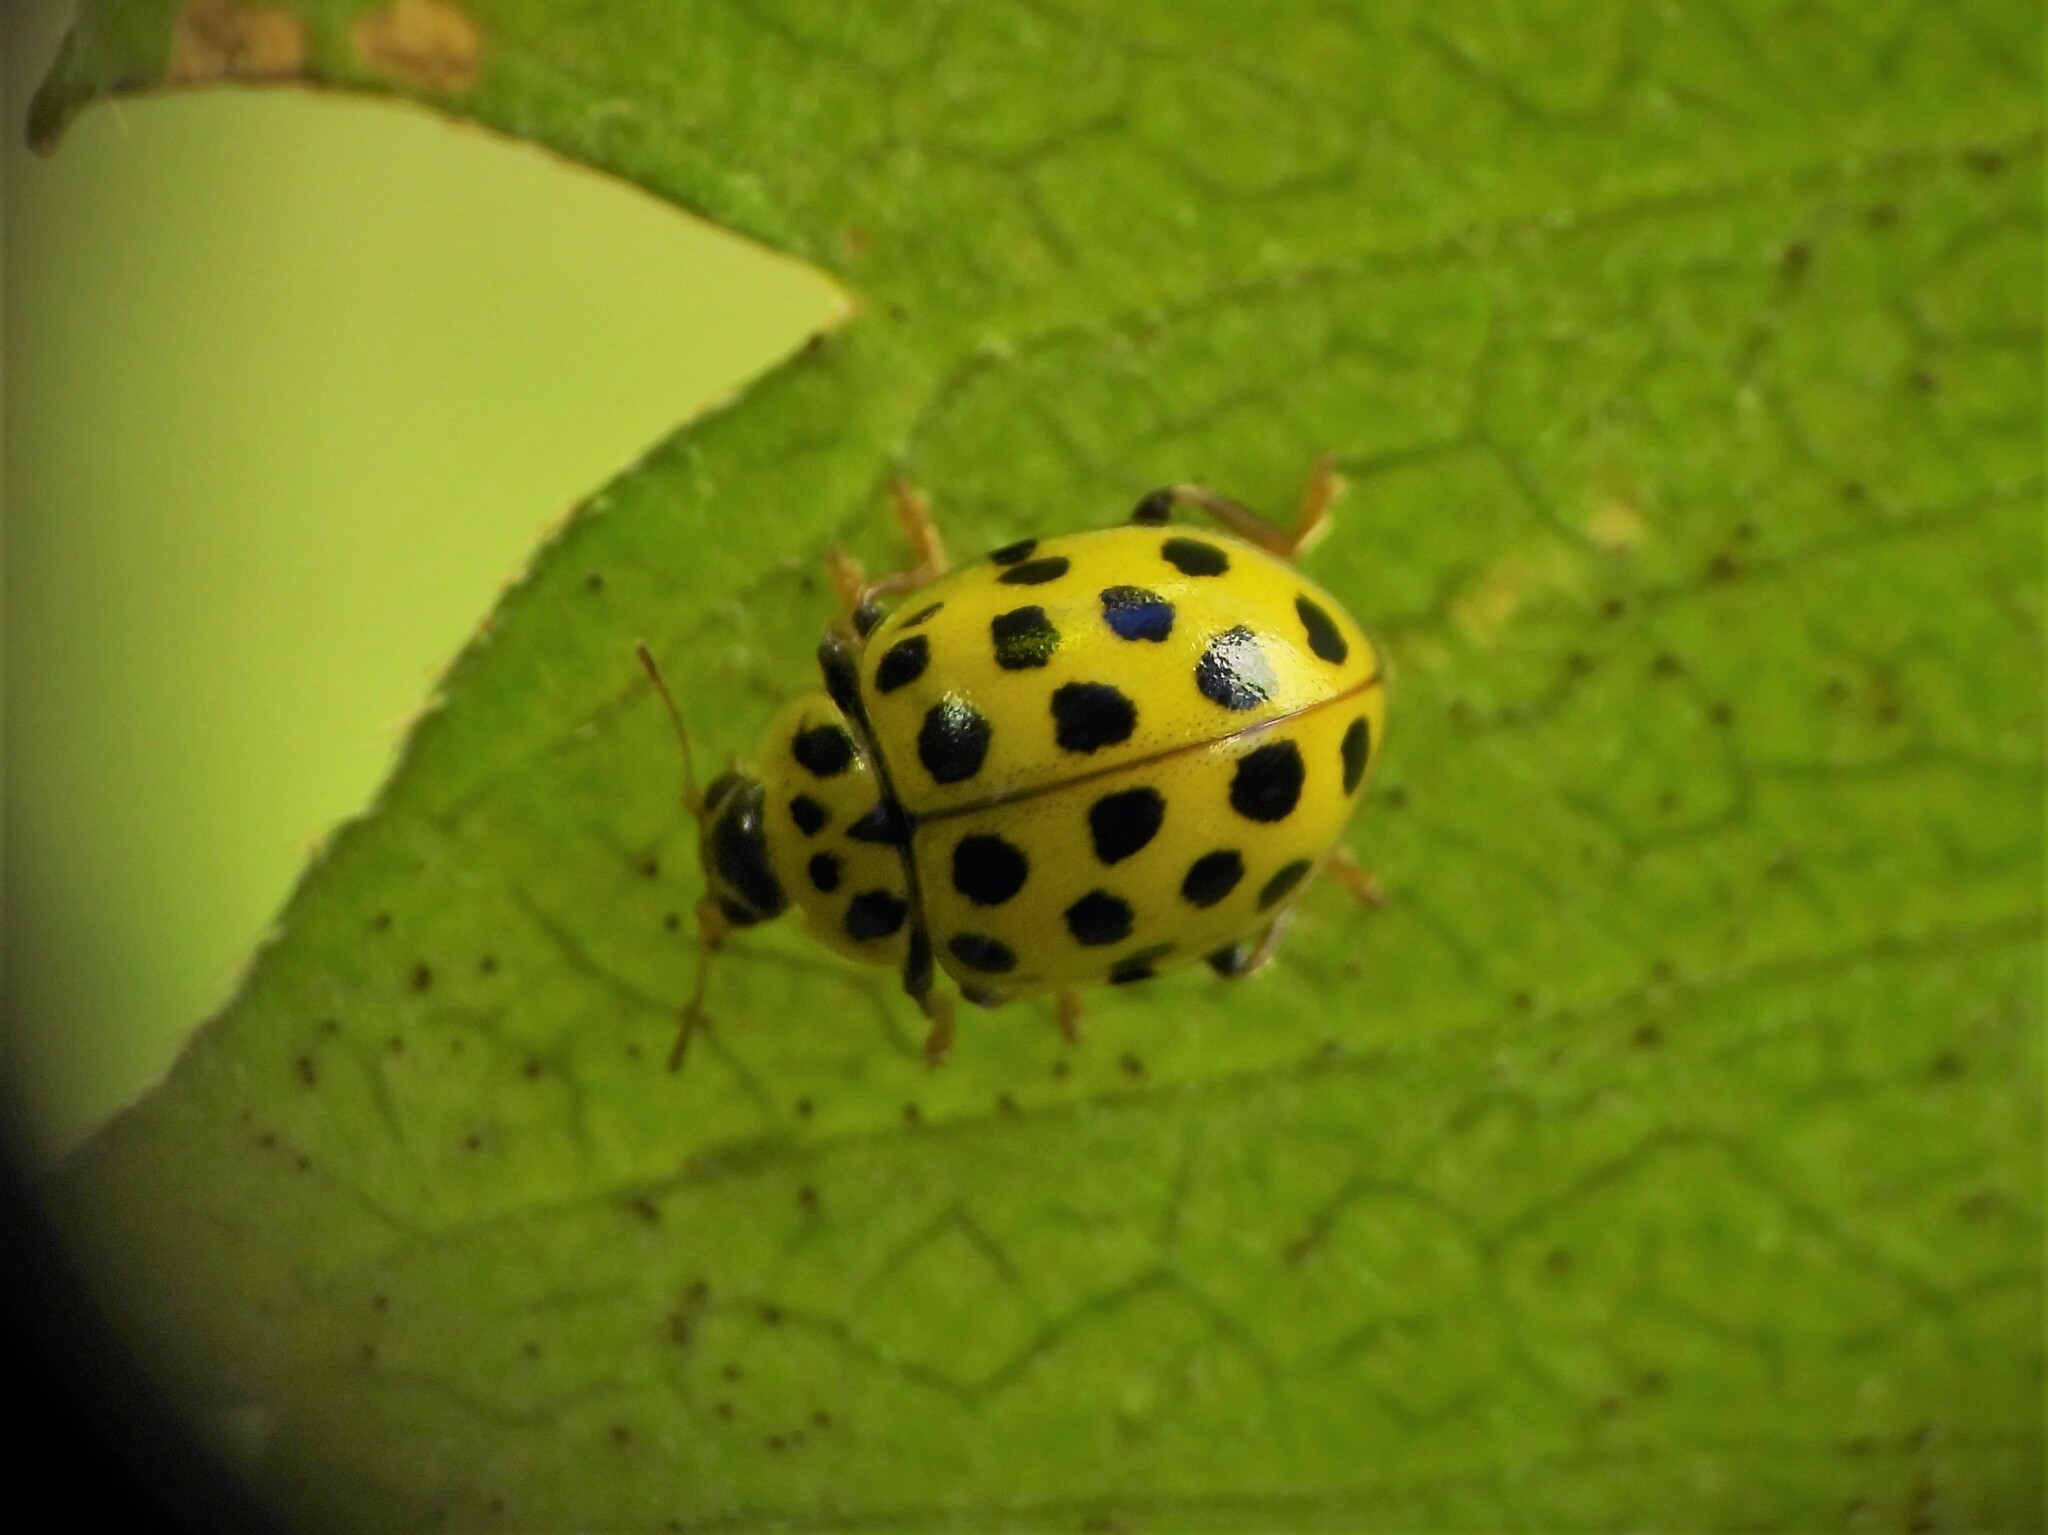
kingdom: Animalia
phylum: Arthropoda
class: Insecta
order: Coleoptera
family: Coccinellidae
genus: Psyllobora
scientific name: Psyllobora vigintiduopunctata
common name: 22-spot ladybird
